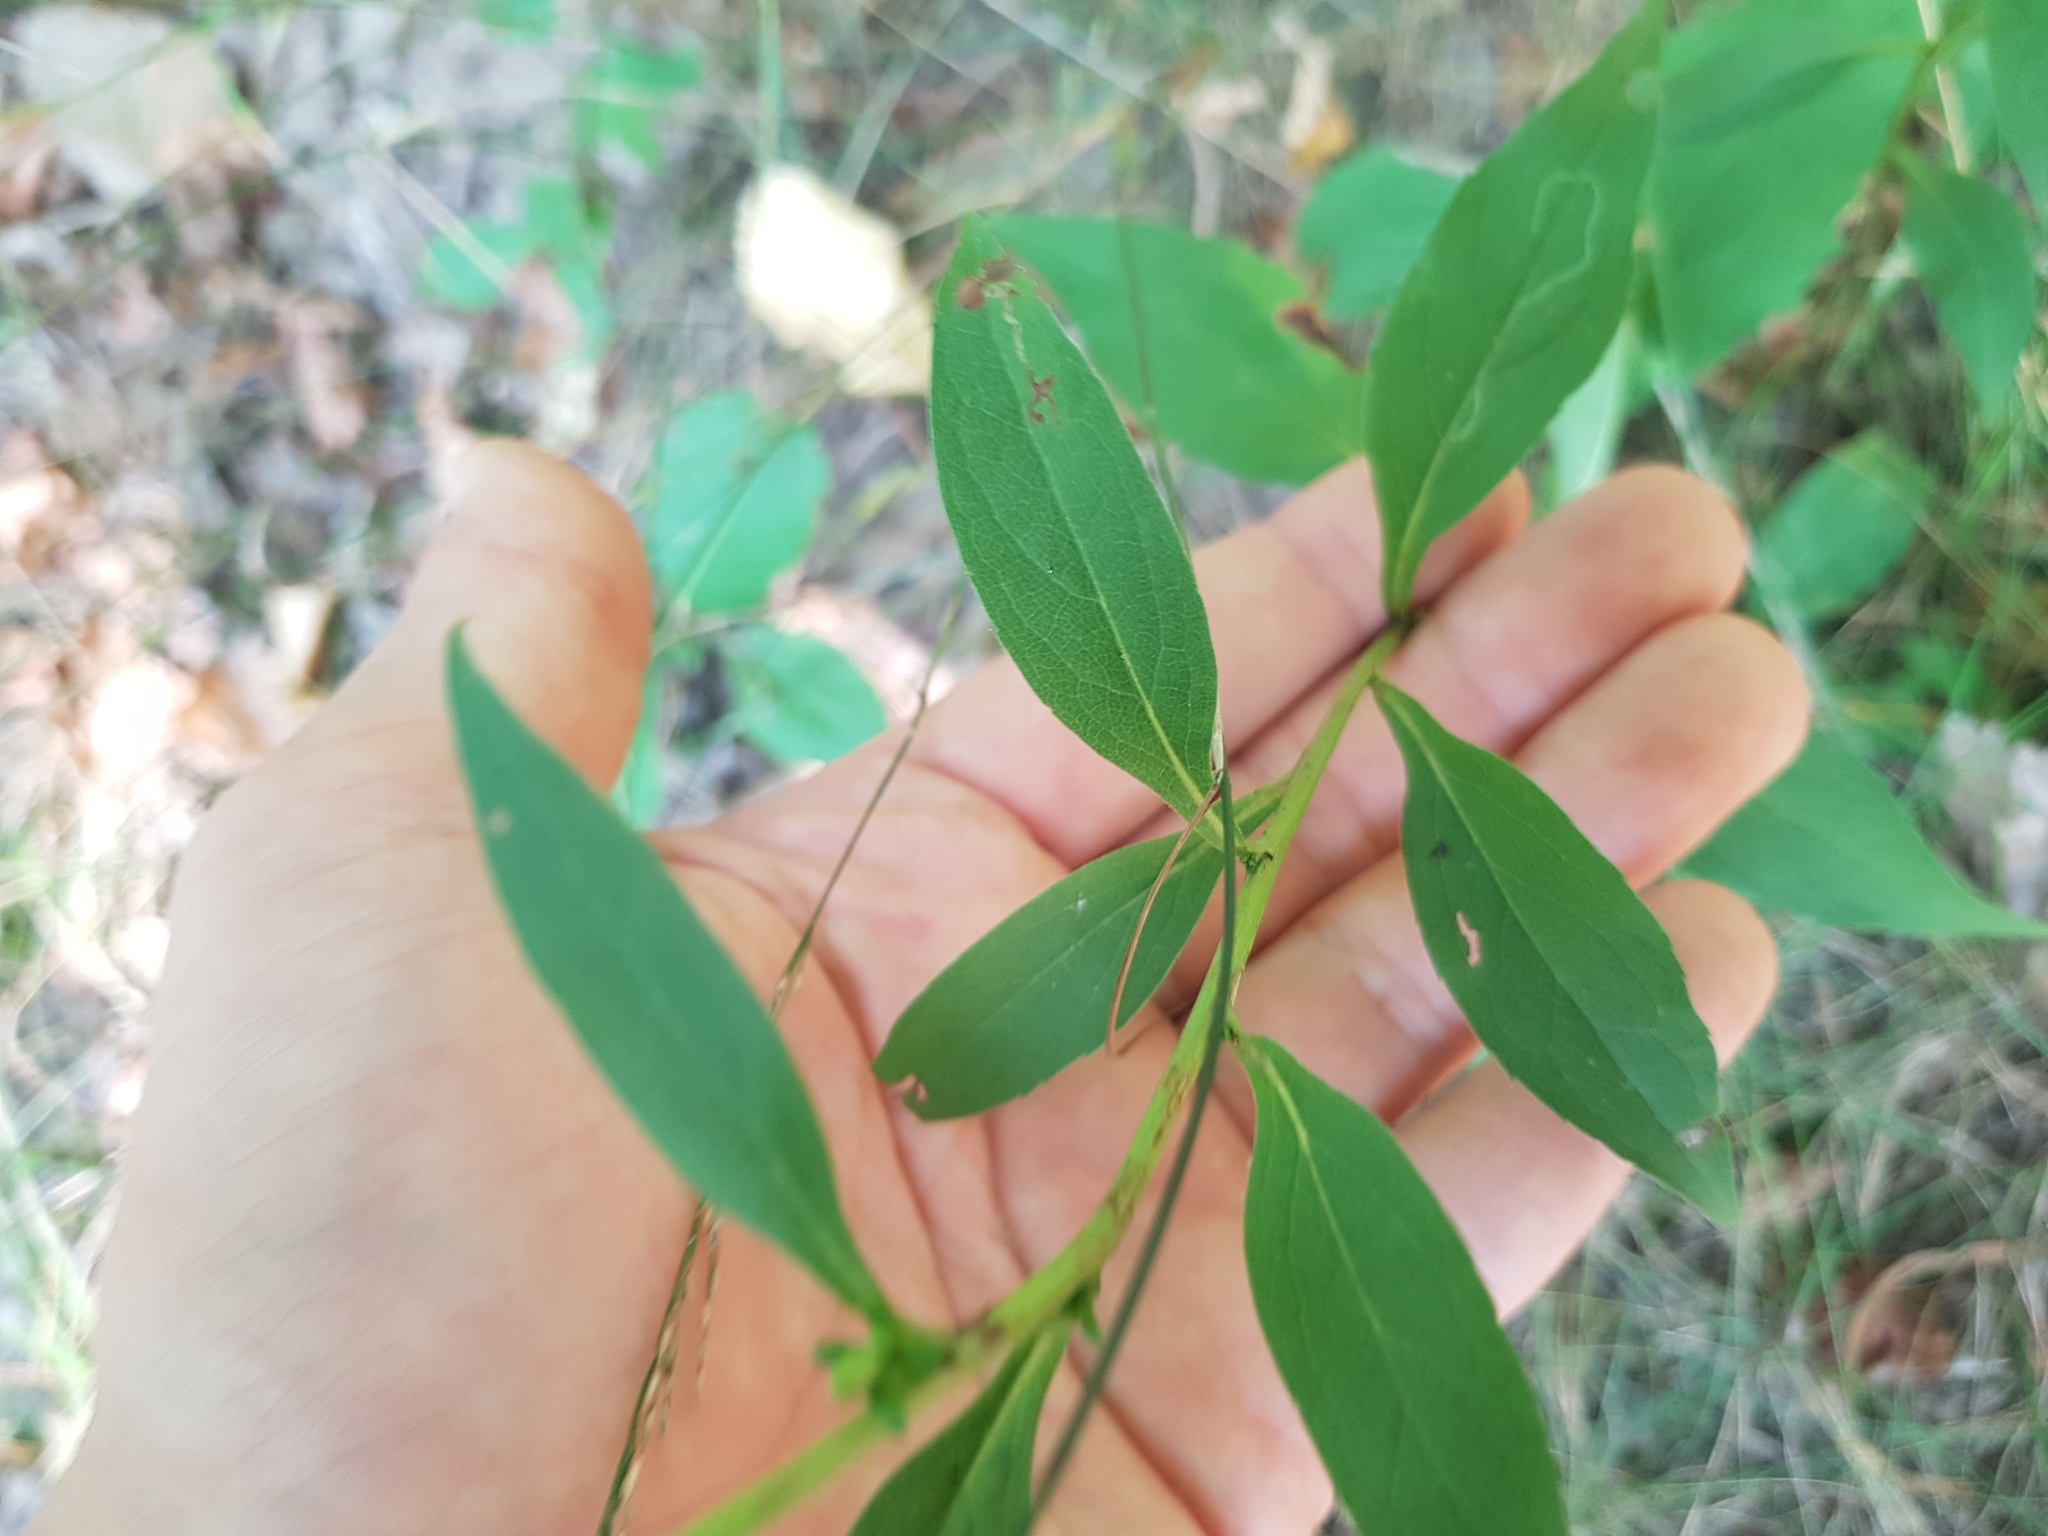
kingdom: Plantae
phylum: Tracheophyta
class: Magnoliopsida
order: Asterales
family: Asteraceae
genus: Solidago
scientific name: Solidago virgaurea
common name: Goldenrod
